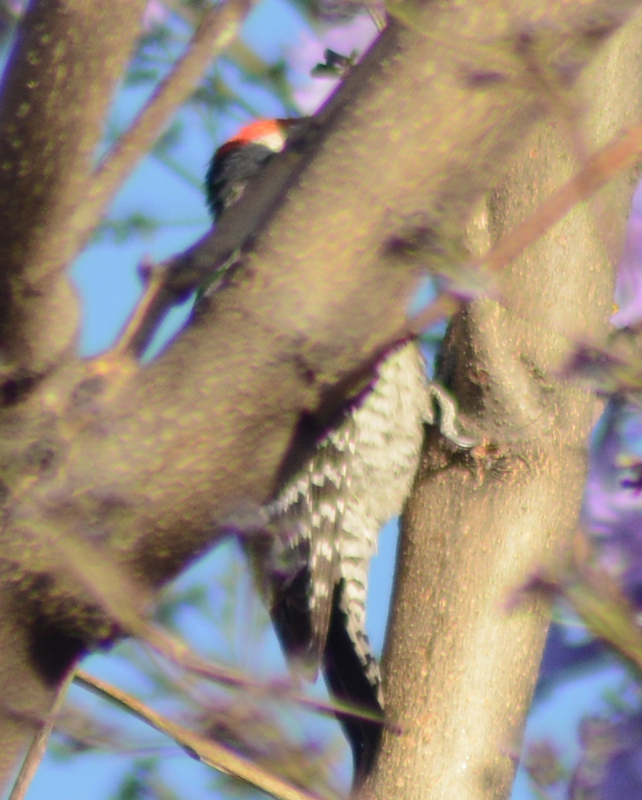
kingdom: Animalia
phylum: Chordata
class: Aves
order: Piciformes
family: Picidae
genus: Dryobates
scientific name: Dryobates scalaris
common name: Ladder-backed woodpecker
